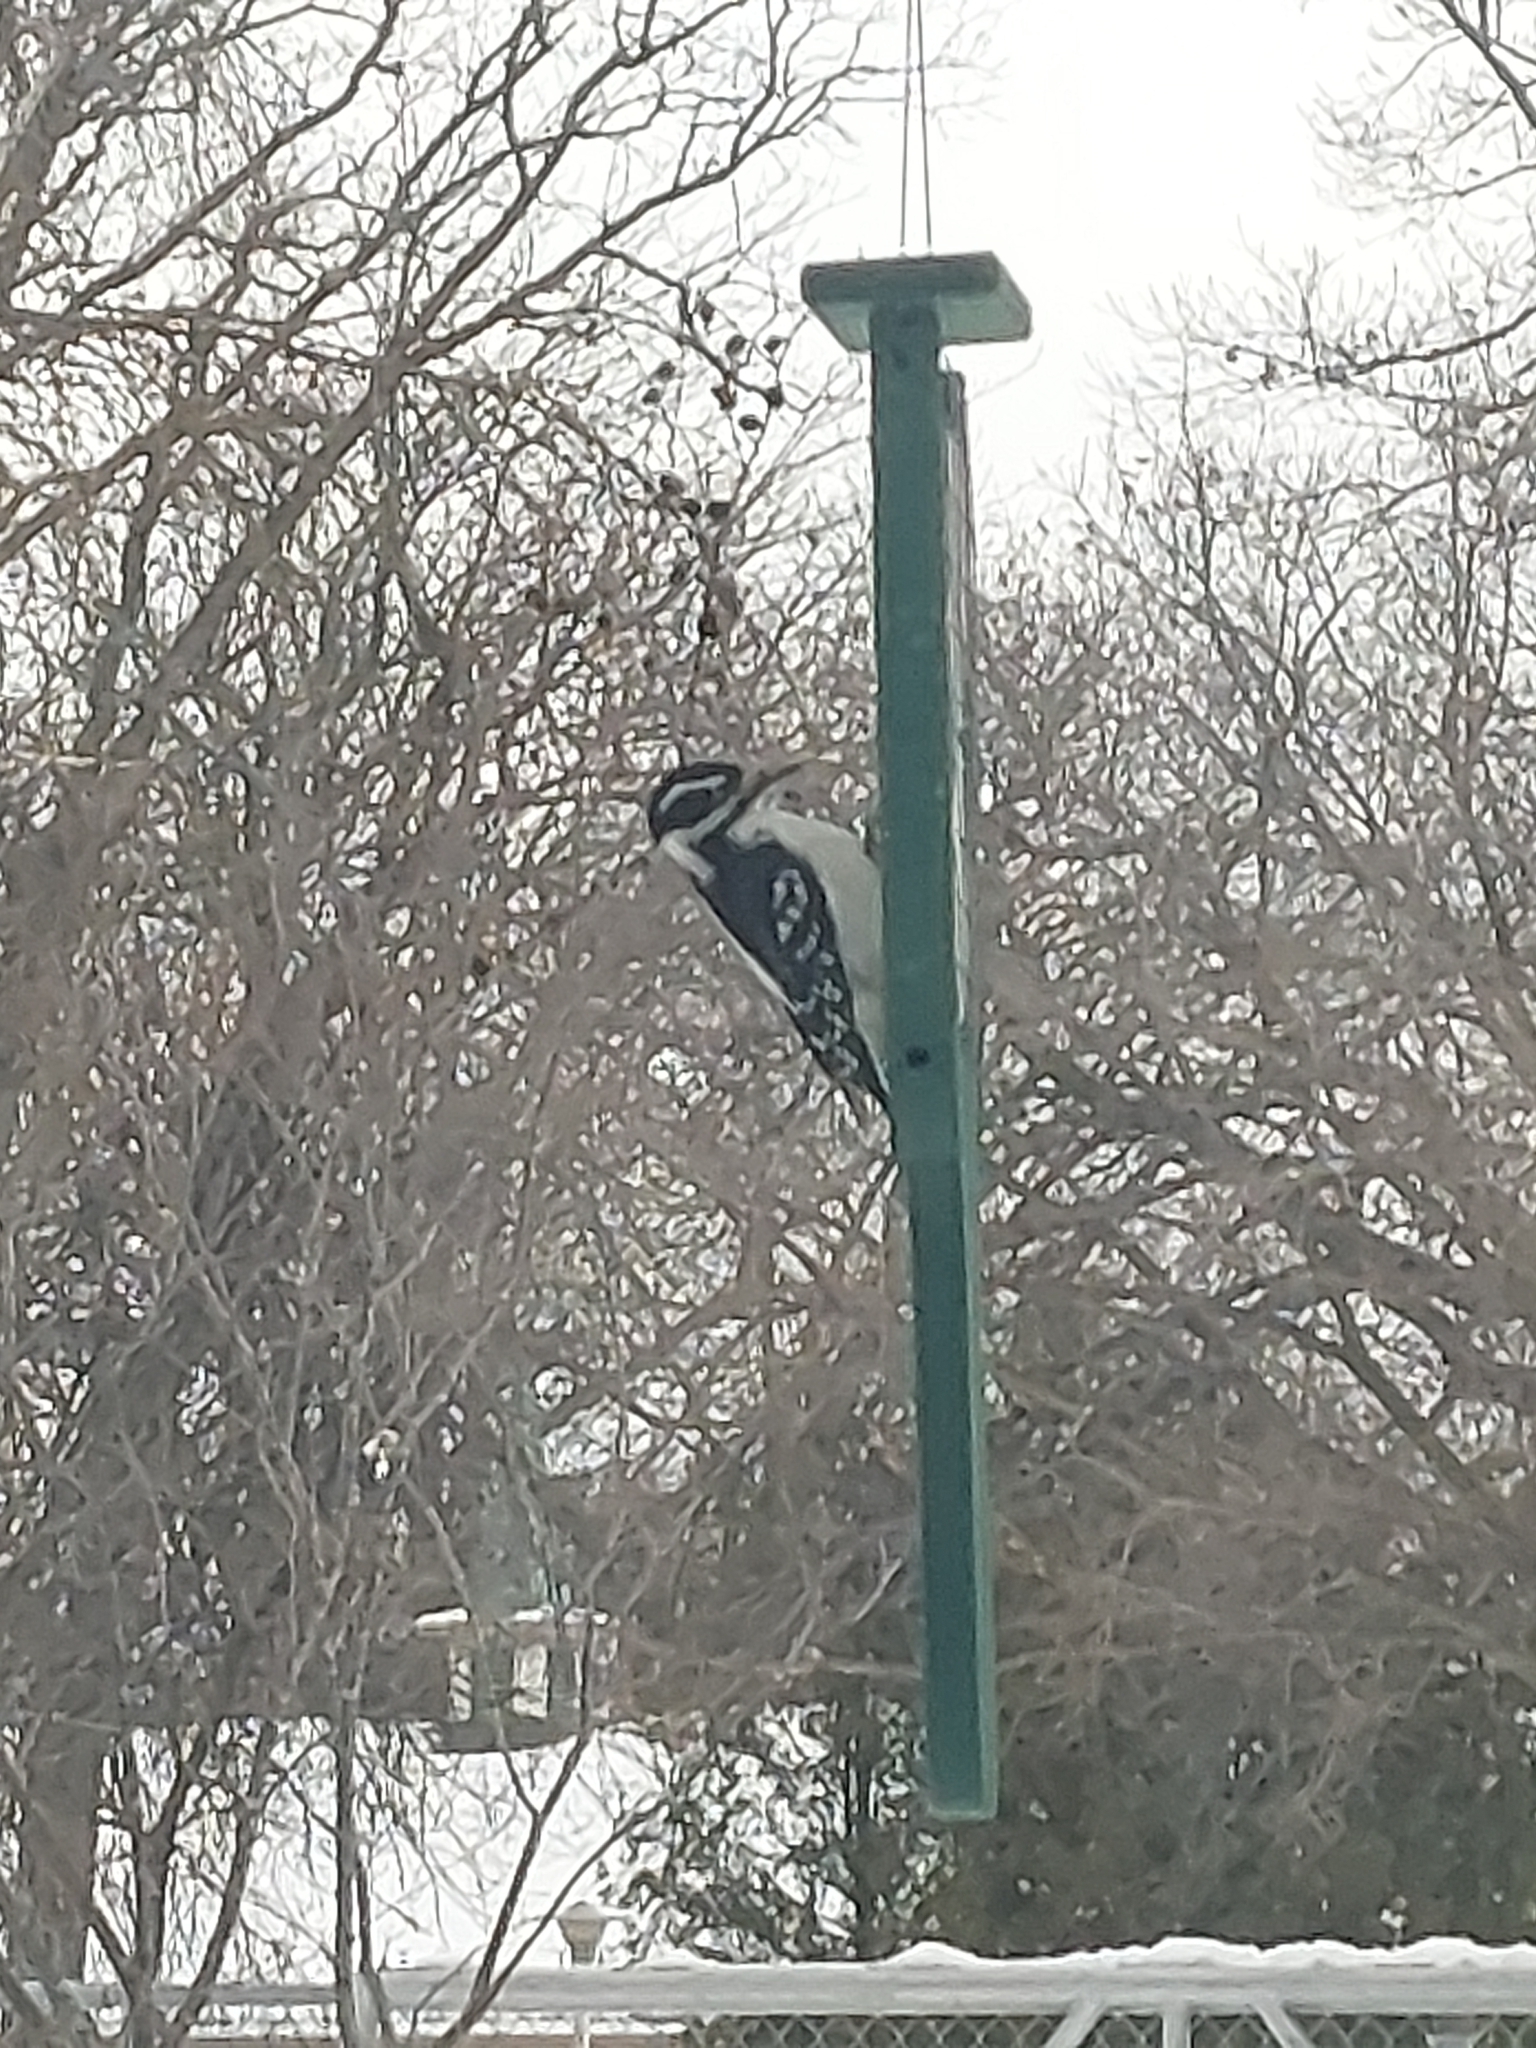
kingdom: Animalia
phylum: Chordata
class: Aves
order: Piciformes
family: Picidae
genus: Leuconotopicus
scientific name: Leuconotopicus villosus
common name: Hairy woodpecker
